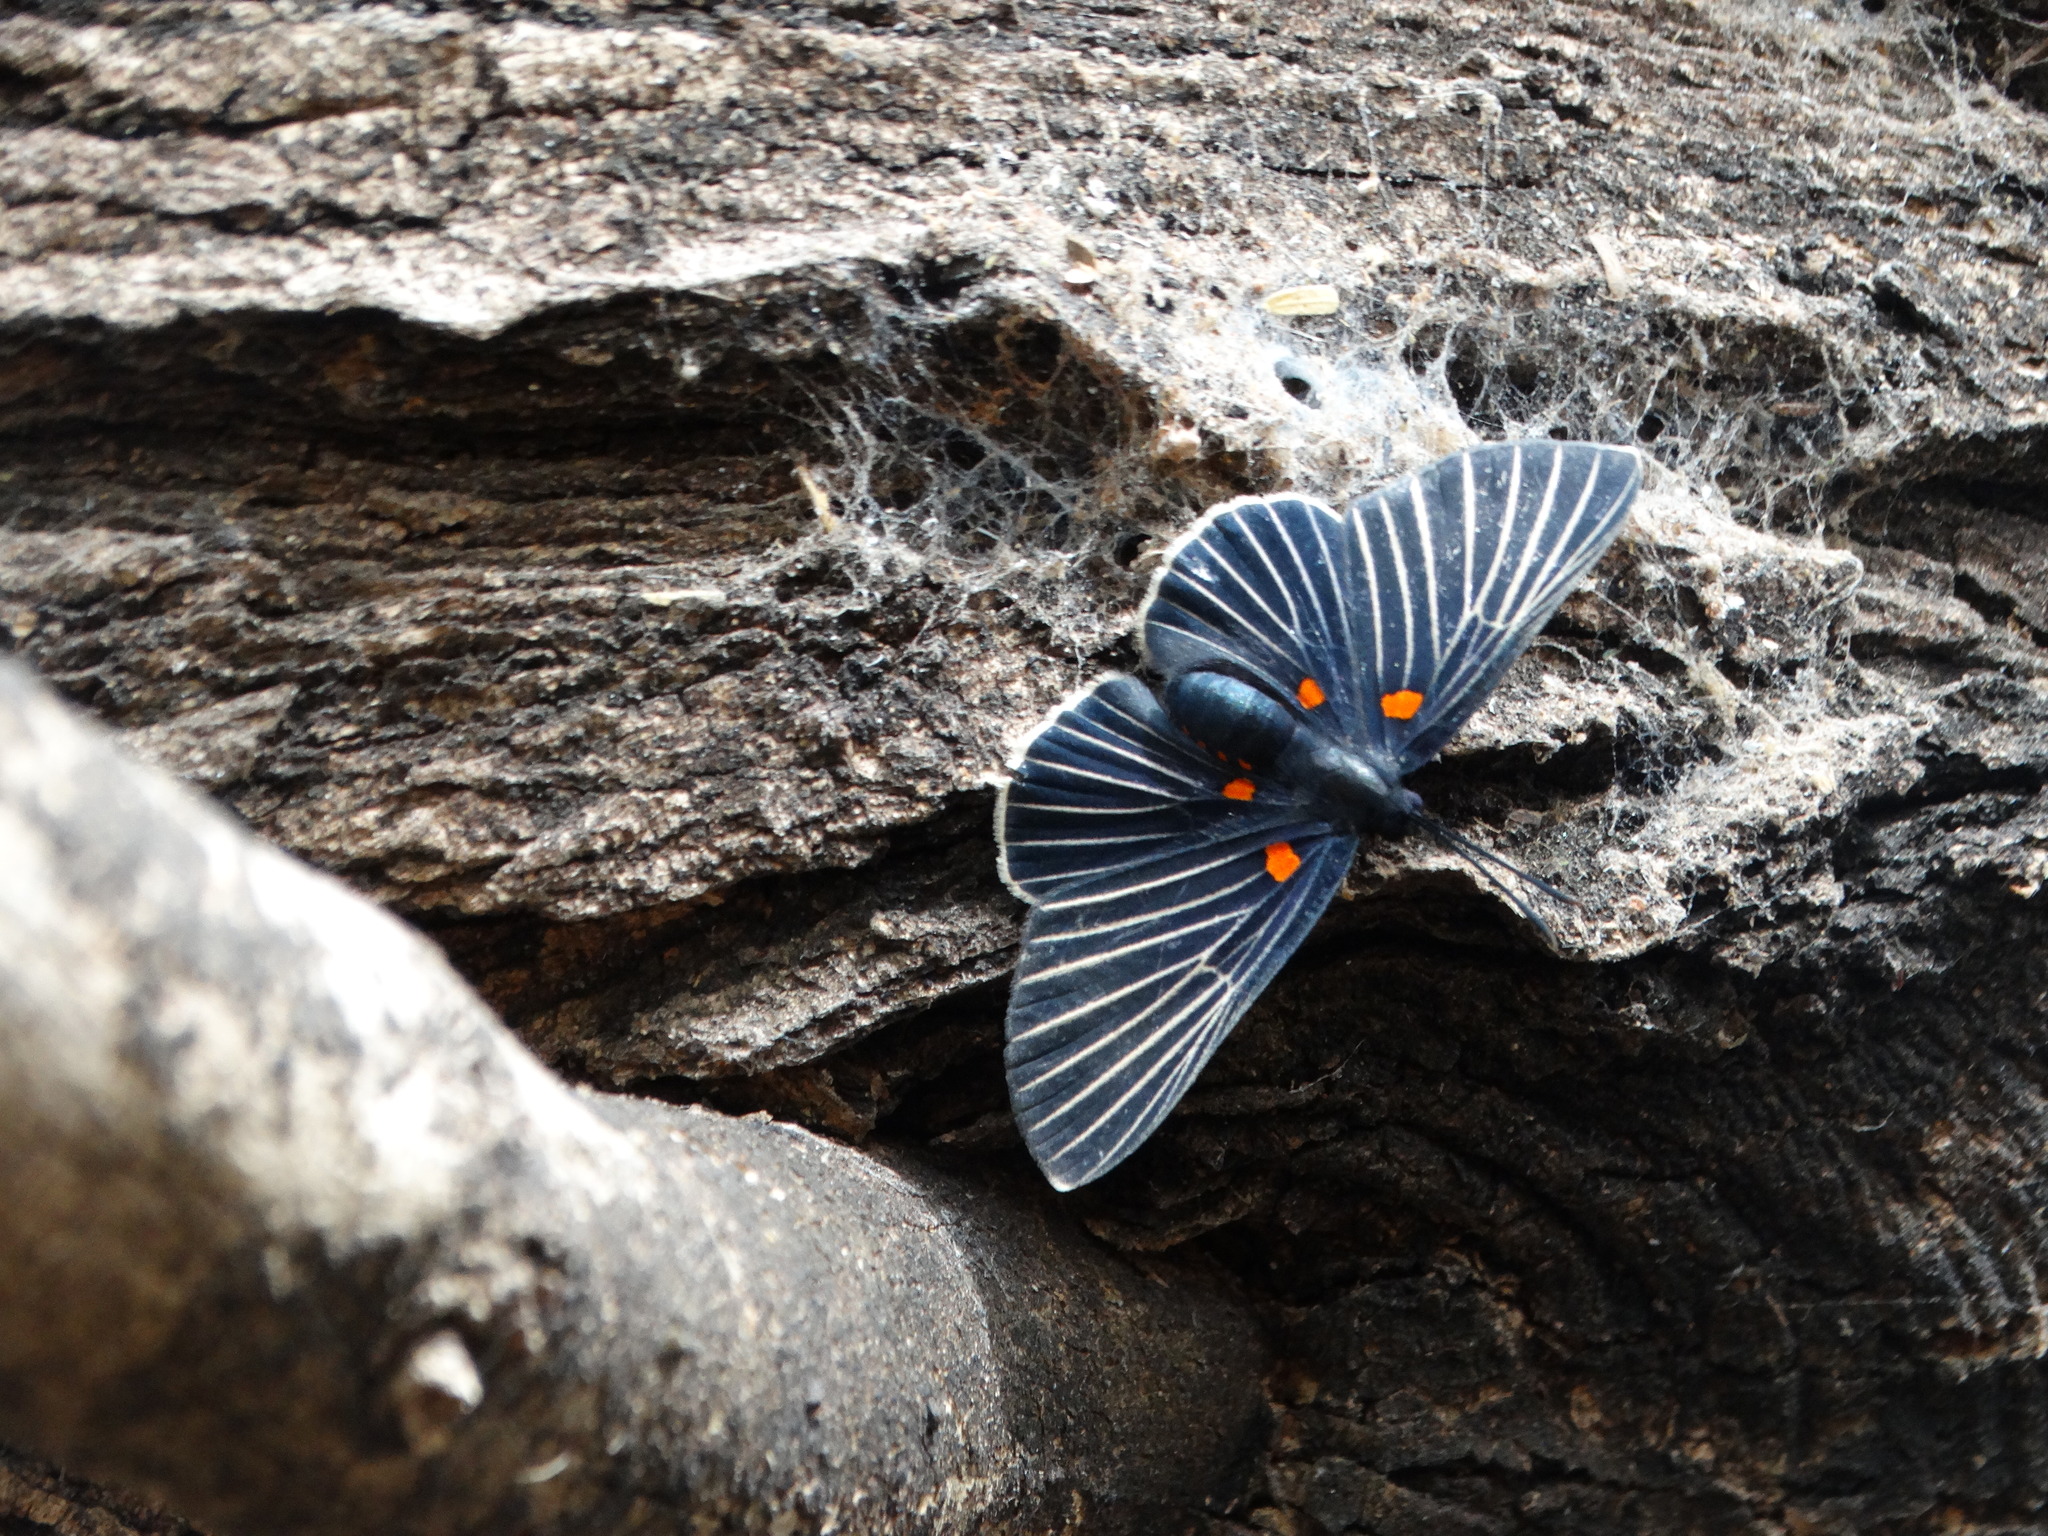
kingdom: Animalia
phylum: Arthropoda
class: Insecta
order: Lepidoptera
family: Lycaenidae
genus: Melanis
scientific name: Melanis
